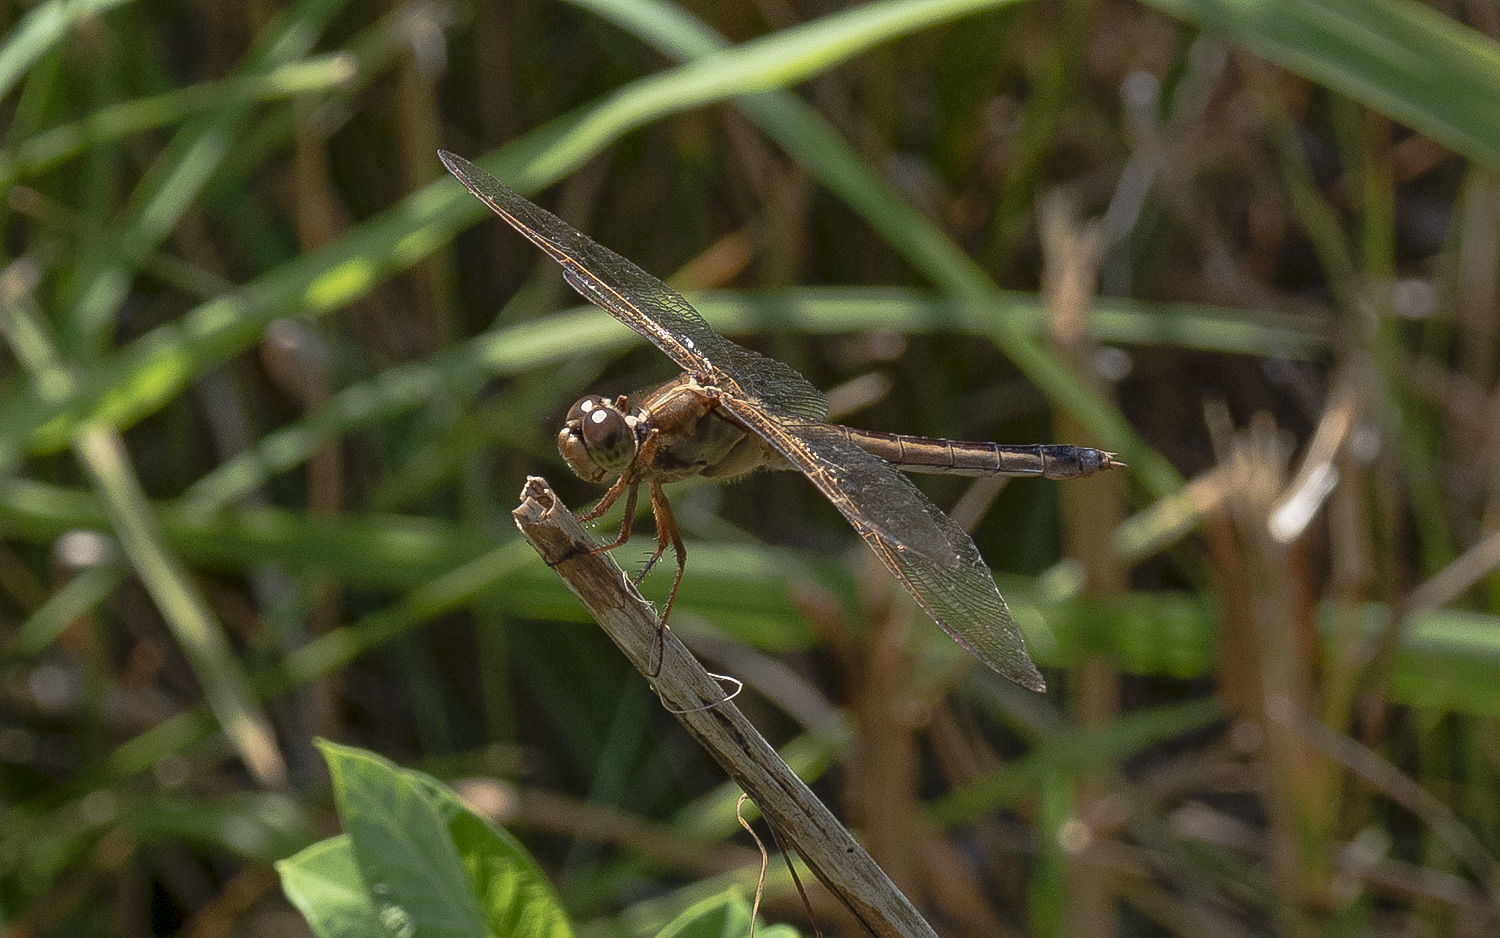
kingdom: Animalia
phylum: Arthropoda
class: Insecta
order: Odonata
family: Libellulidae
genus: Libellula
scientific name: Libellula needhami
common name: Needham's skimmer
